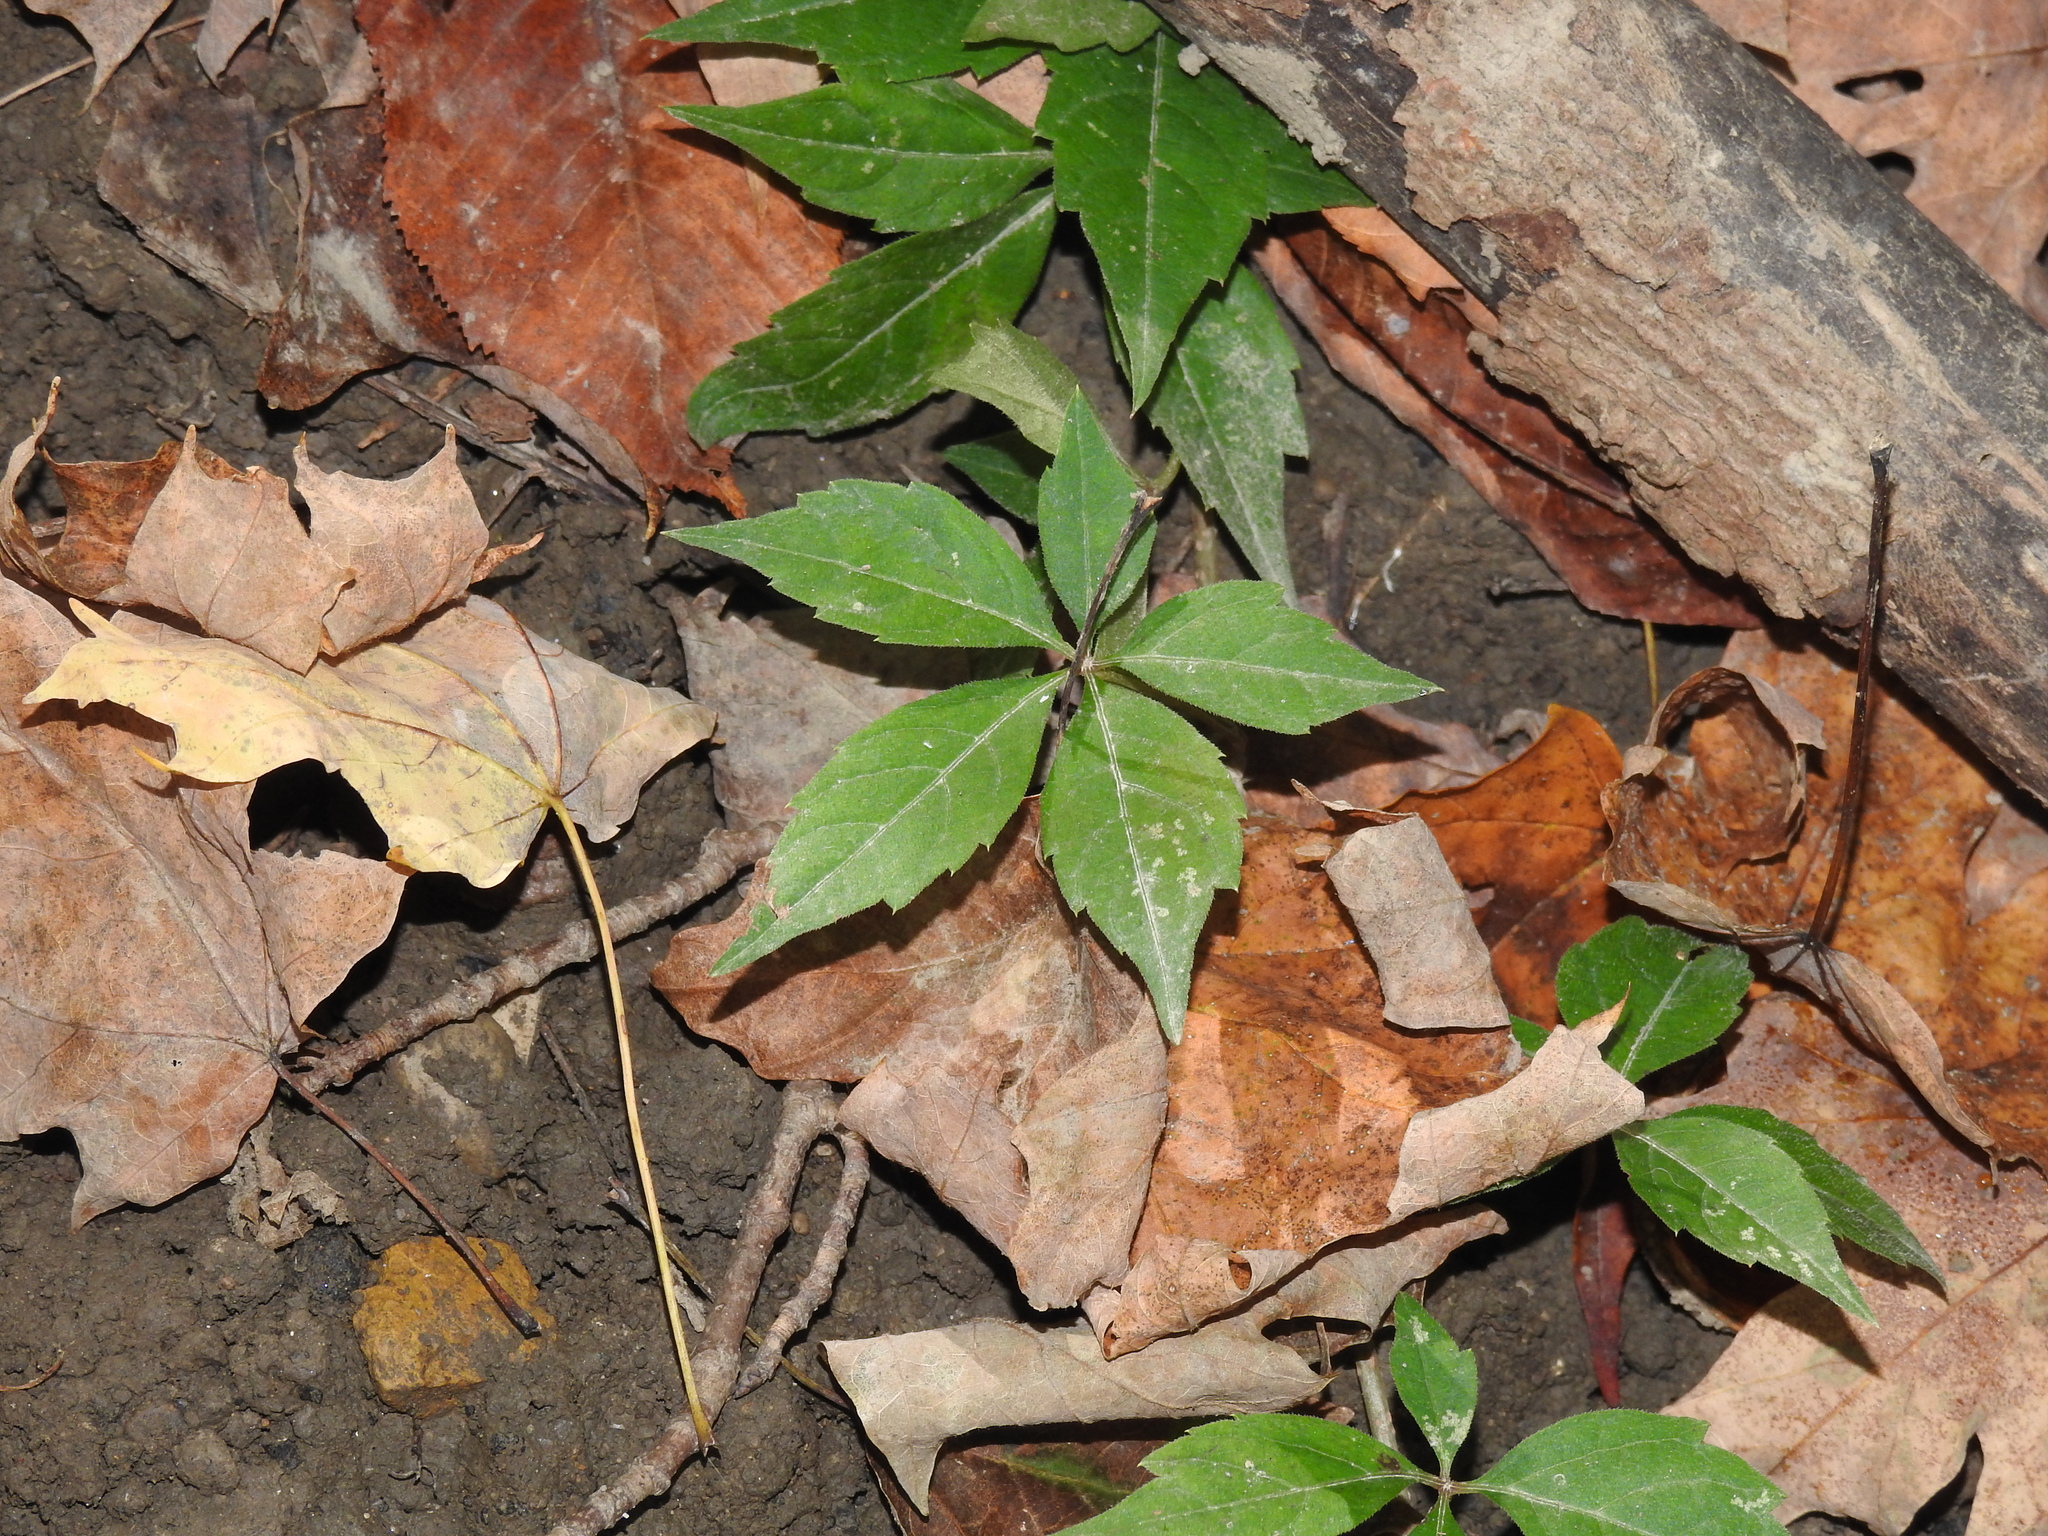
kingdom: Plantae
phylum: Tracheophyta
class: Magnoliopsida
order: Vitales
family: Vitaceae
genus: Parthenocissus
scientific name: Parthenocissus quinquefolia
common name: Virginia-creeper
